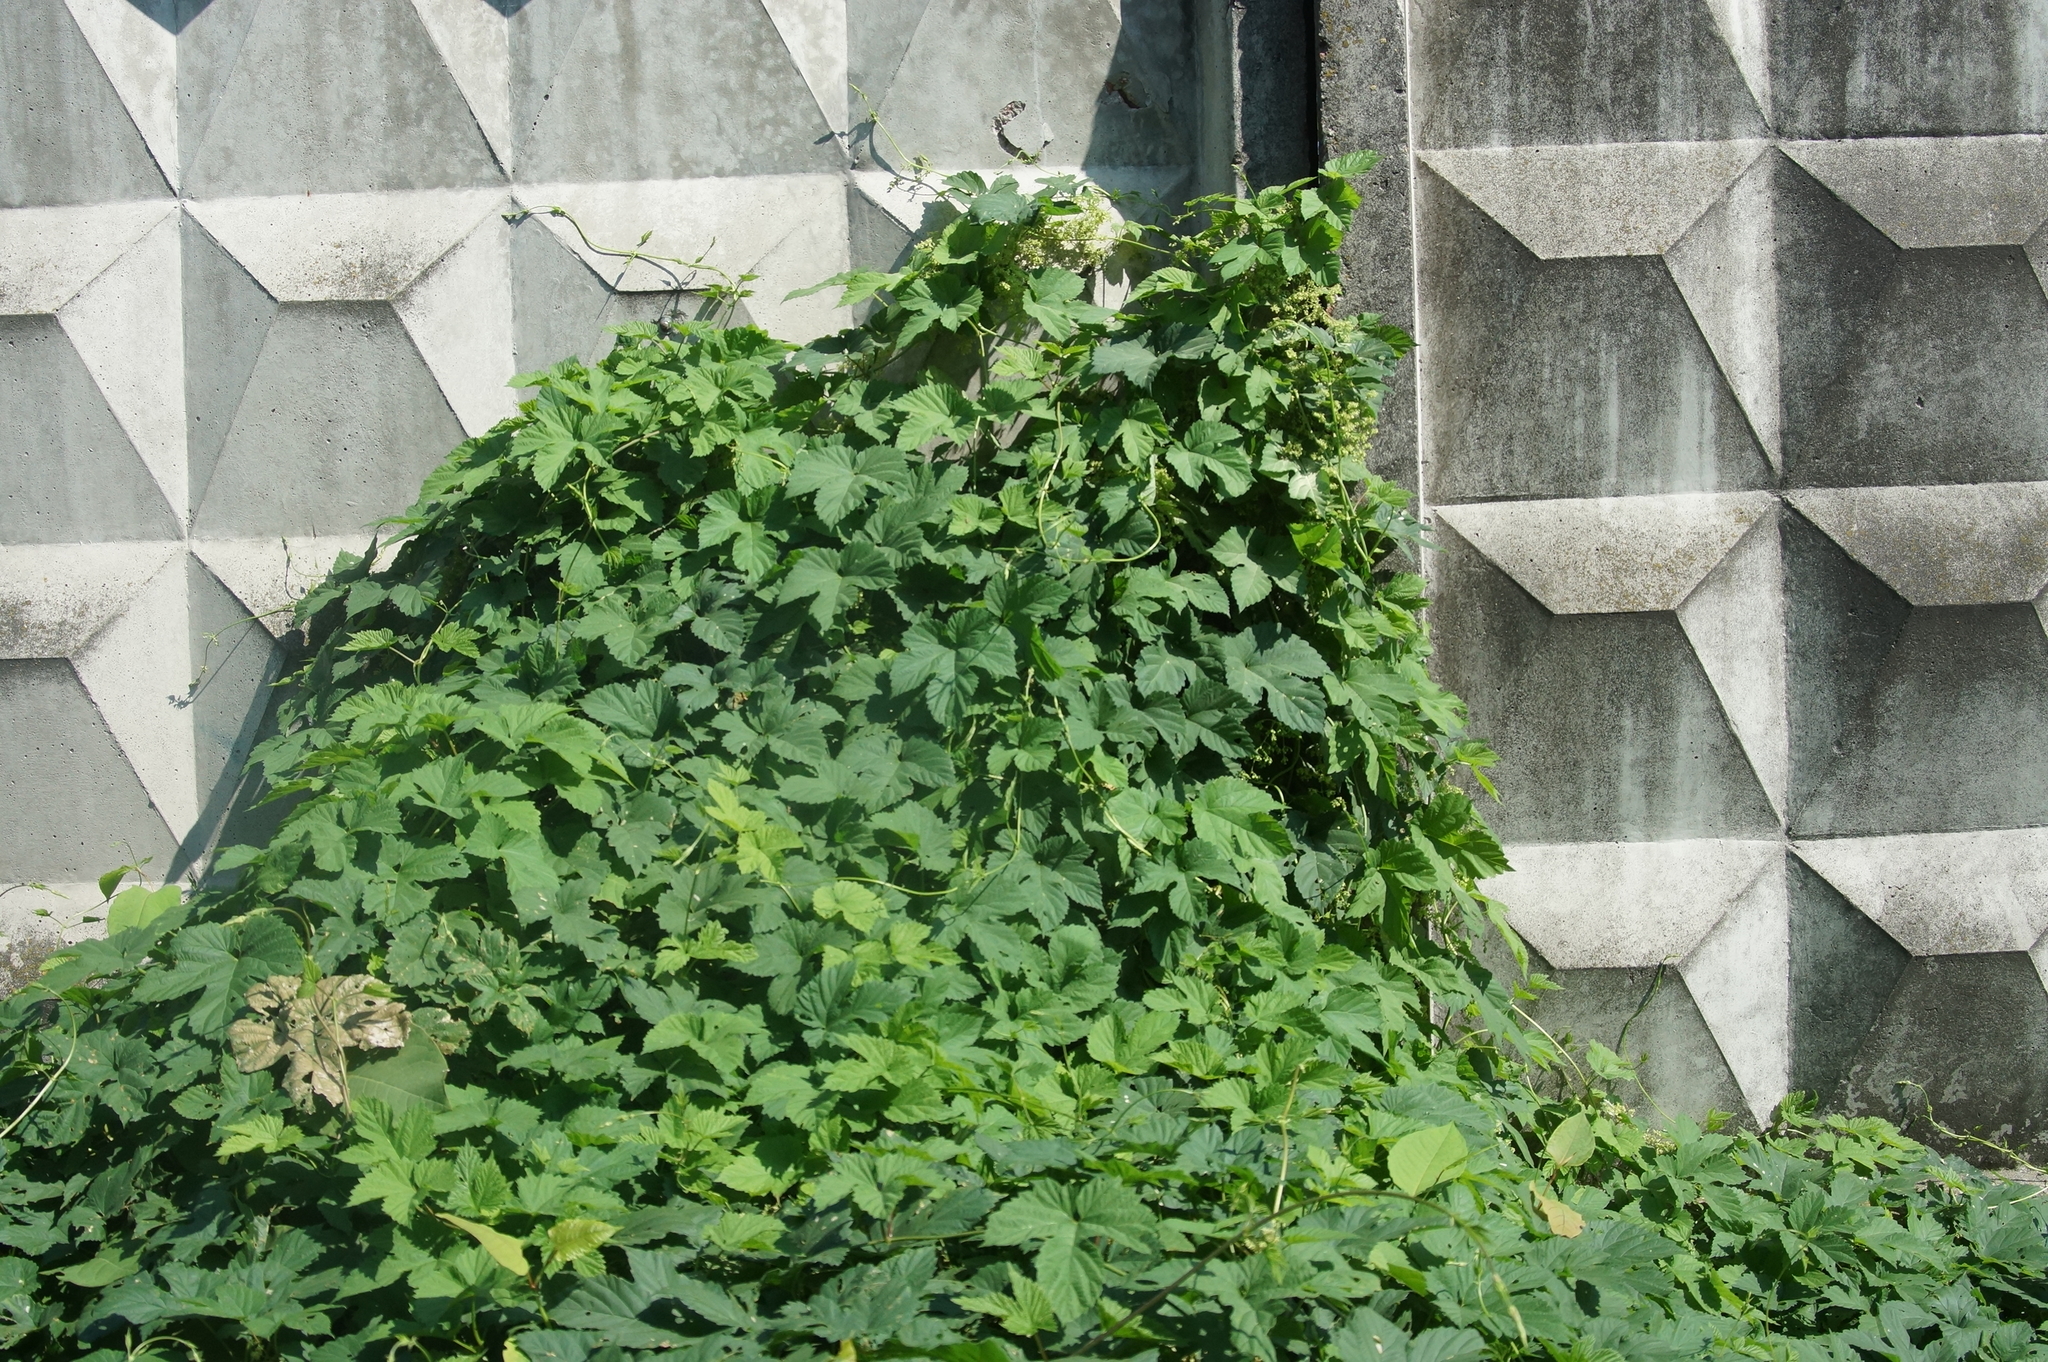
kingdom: Plantae
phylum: Tracheophyta
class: Magnoliopsida
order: Rosales
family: Cannabaceae
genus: Humulus
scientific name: Humulus lupulus
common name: Hop
